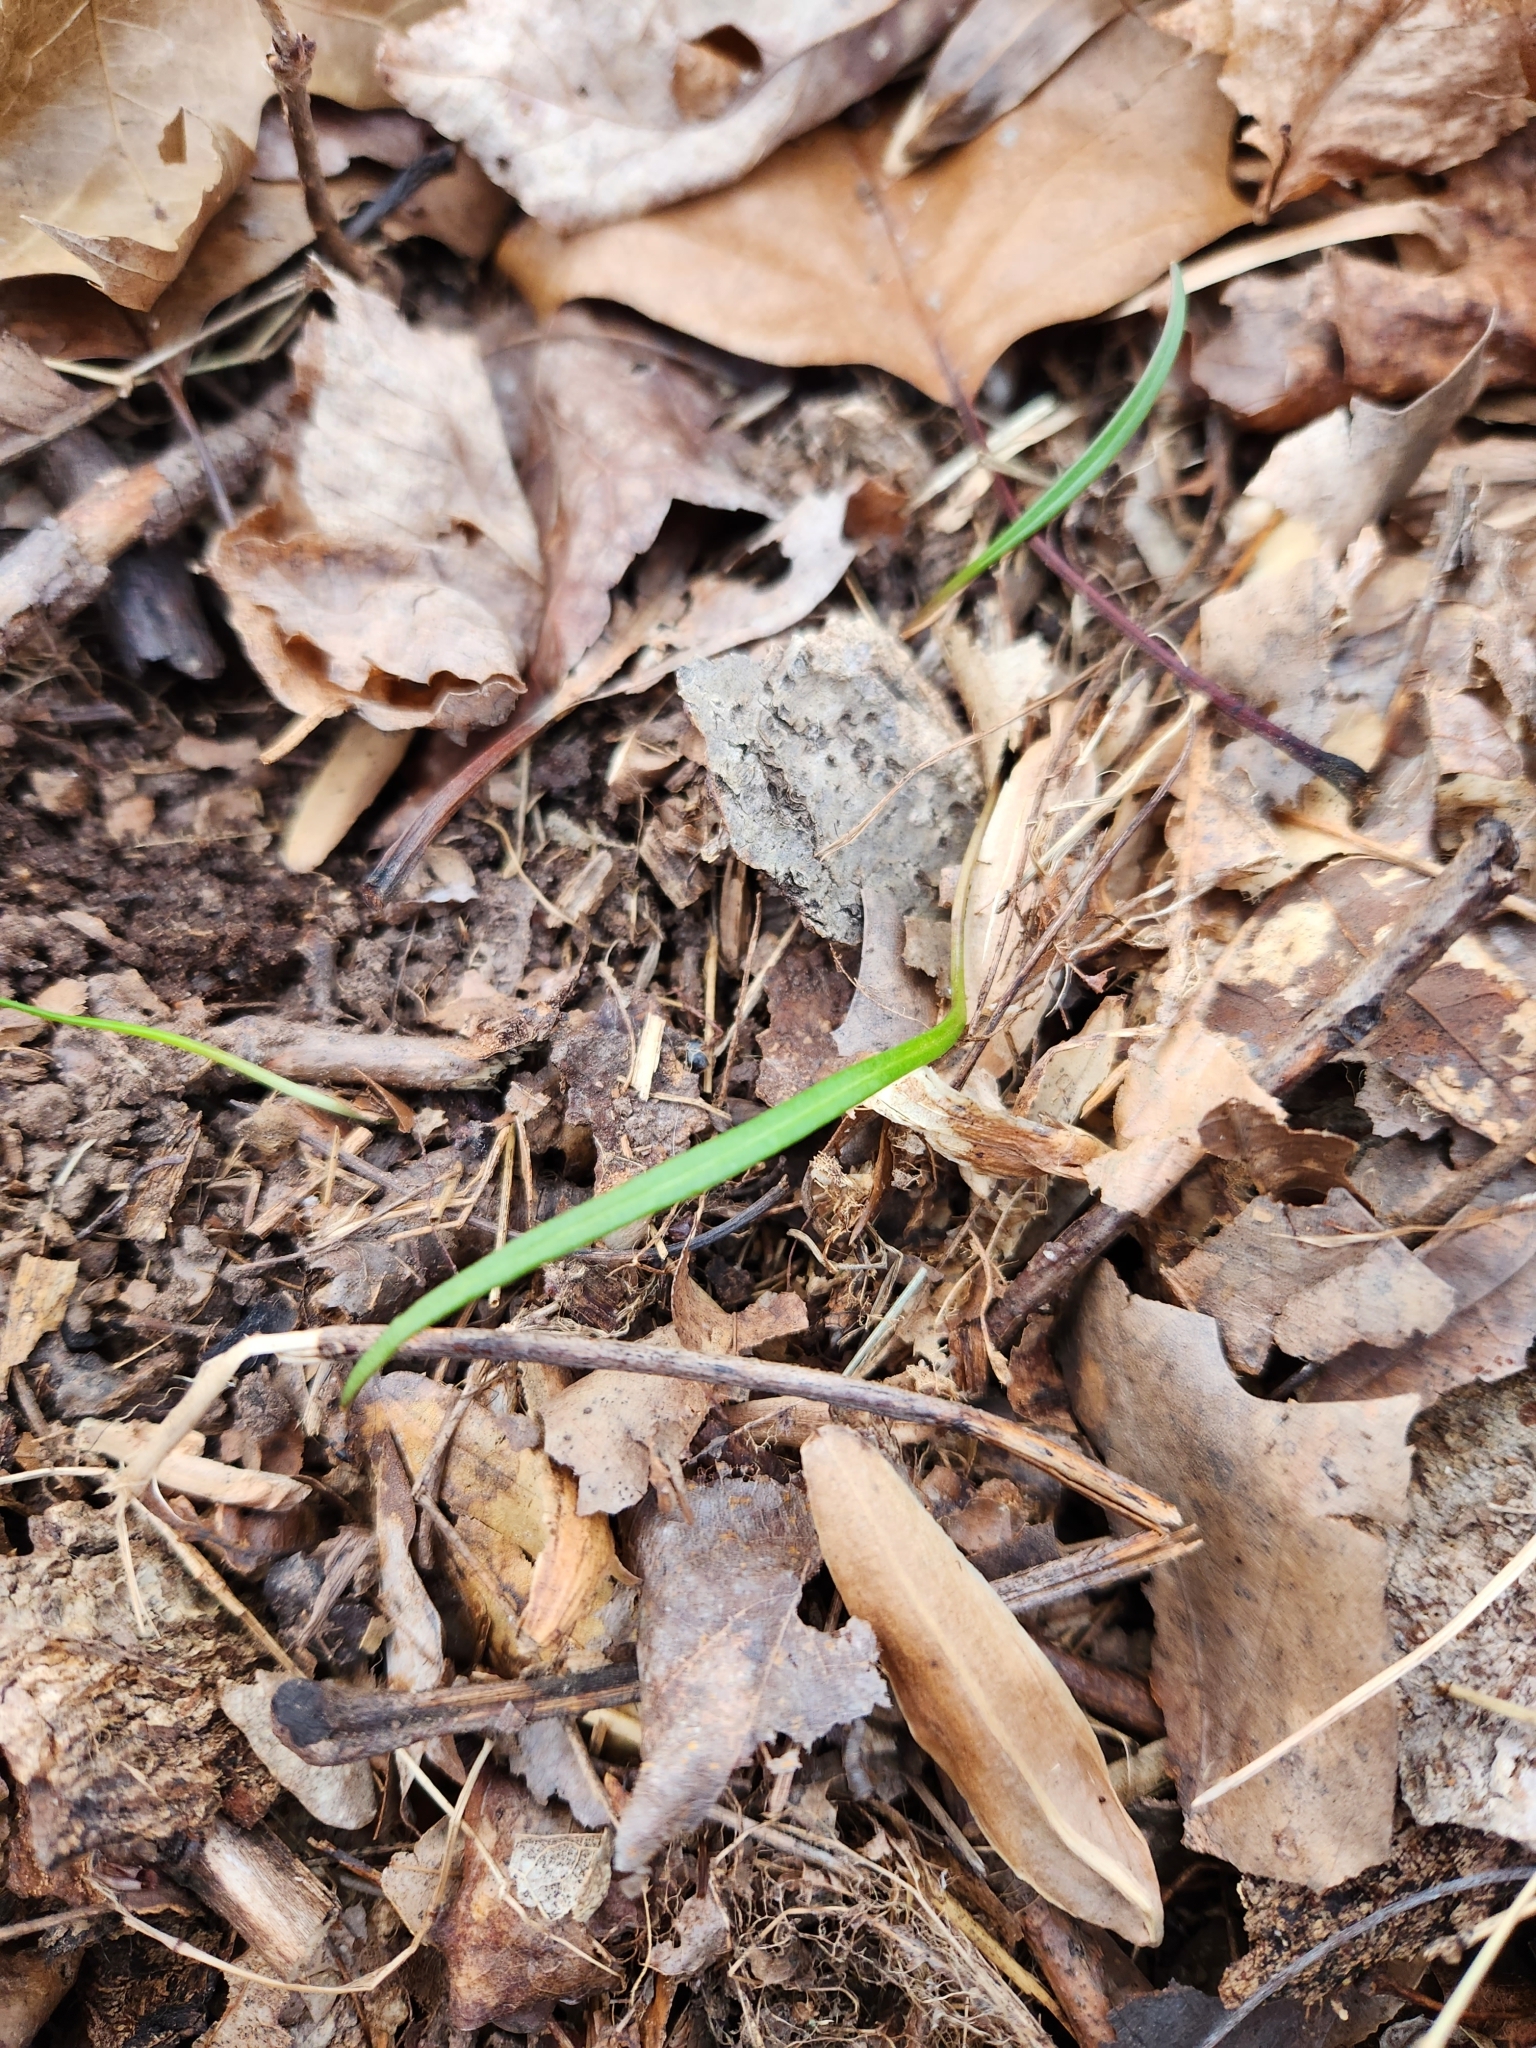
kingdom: Plantae
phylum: Tracheophyta
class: Magnoliopsida
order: Caryophyllales
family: Montiaceae
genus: Claytonia
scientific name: Claytonia virginica
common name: Virginia springbeauty
